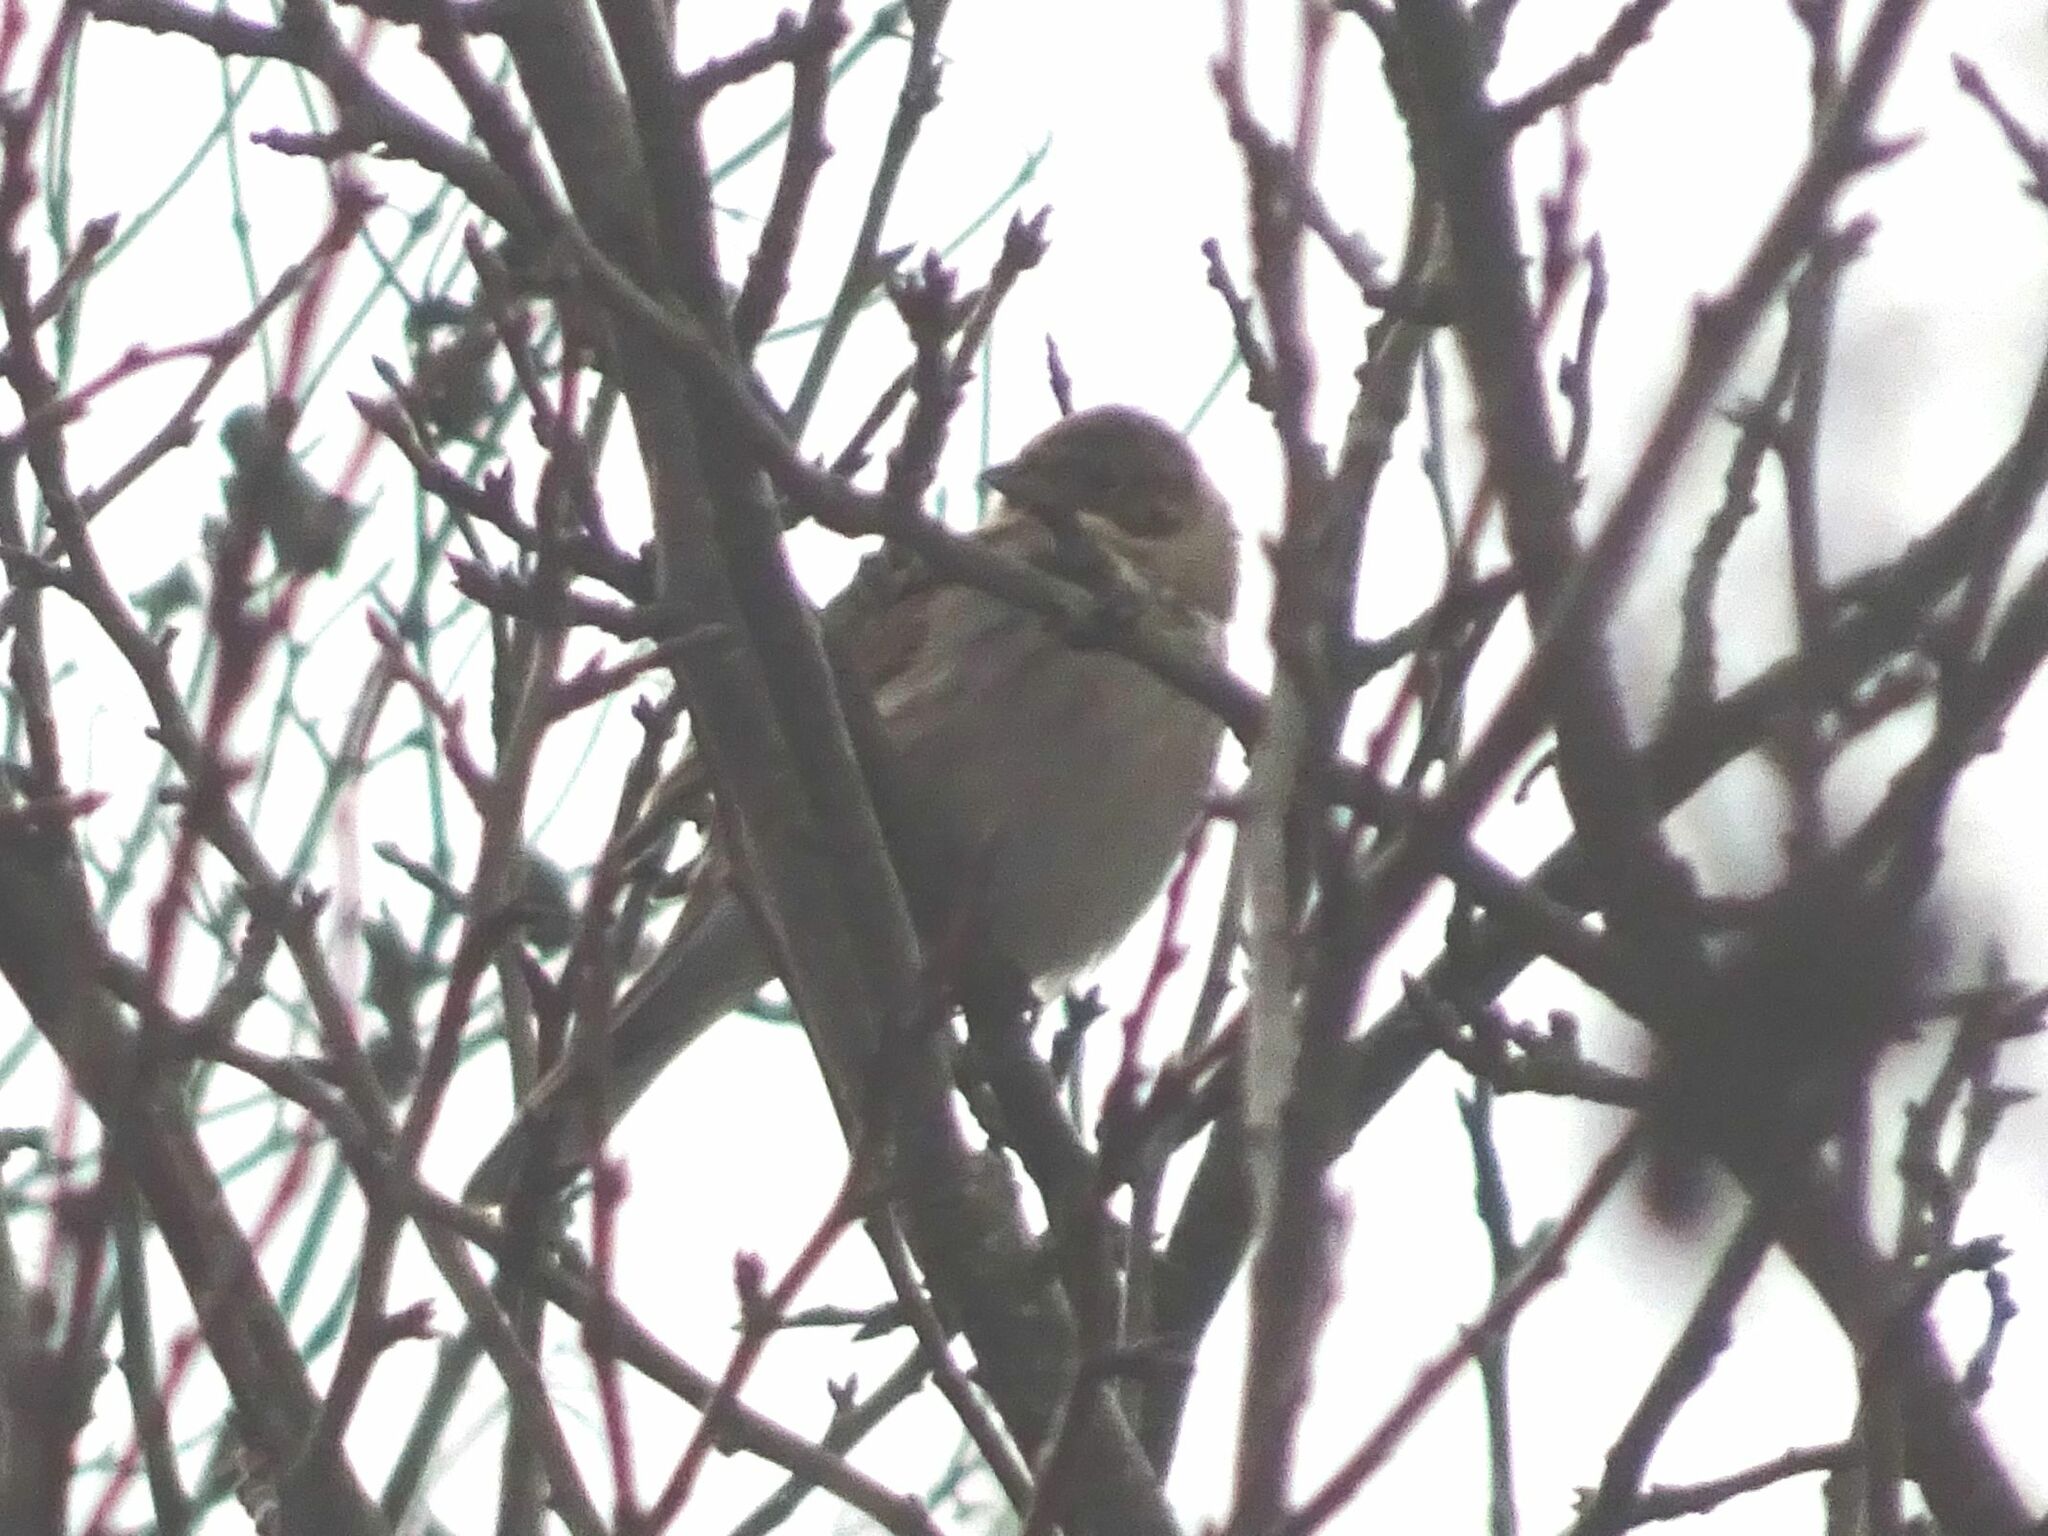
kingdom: Animalia
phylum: Chordata
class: Aves
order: Passeriformes
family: Emberizidae
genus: Emberiza
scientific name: Emberiza schoeniclus
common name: Reed bunting
